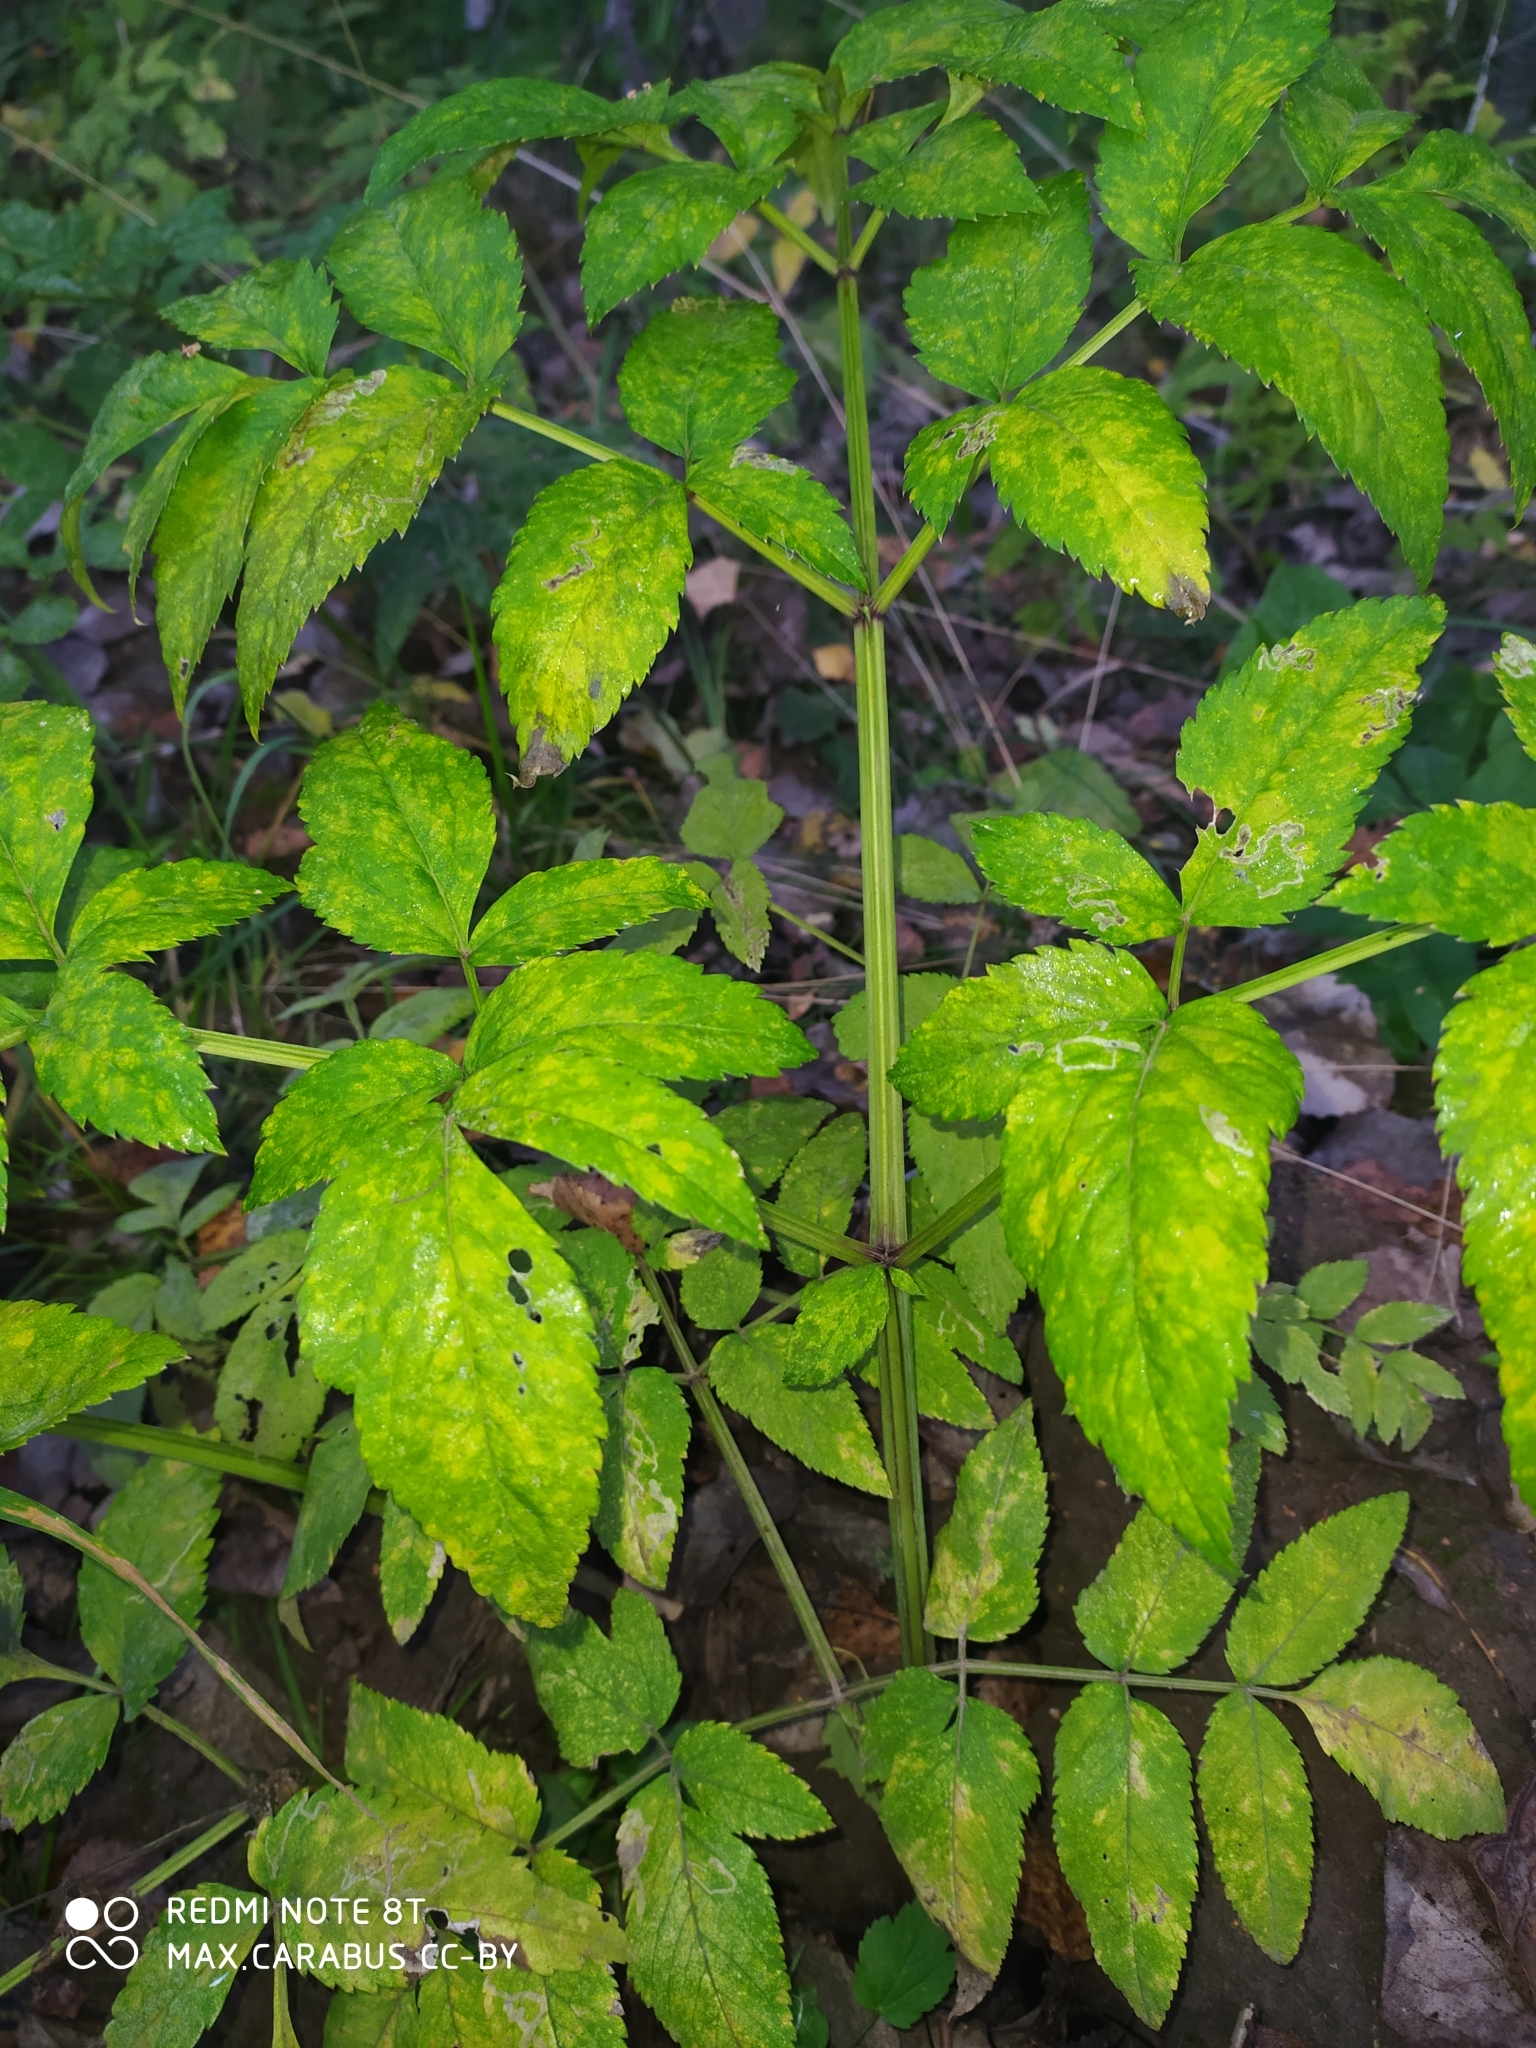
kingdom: Plantae
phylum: Tracheophyta
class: Magnoliopsida
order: Apiales
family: Apiaceae
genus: Angelica
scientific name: Angelica sylvestris
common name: Wild angelica
